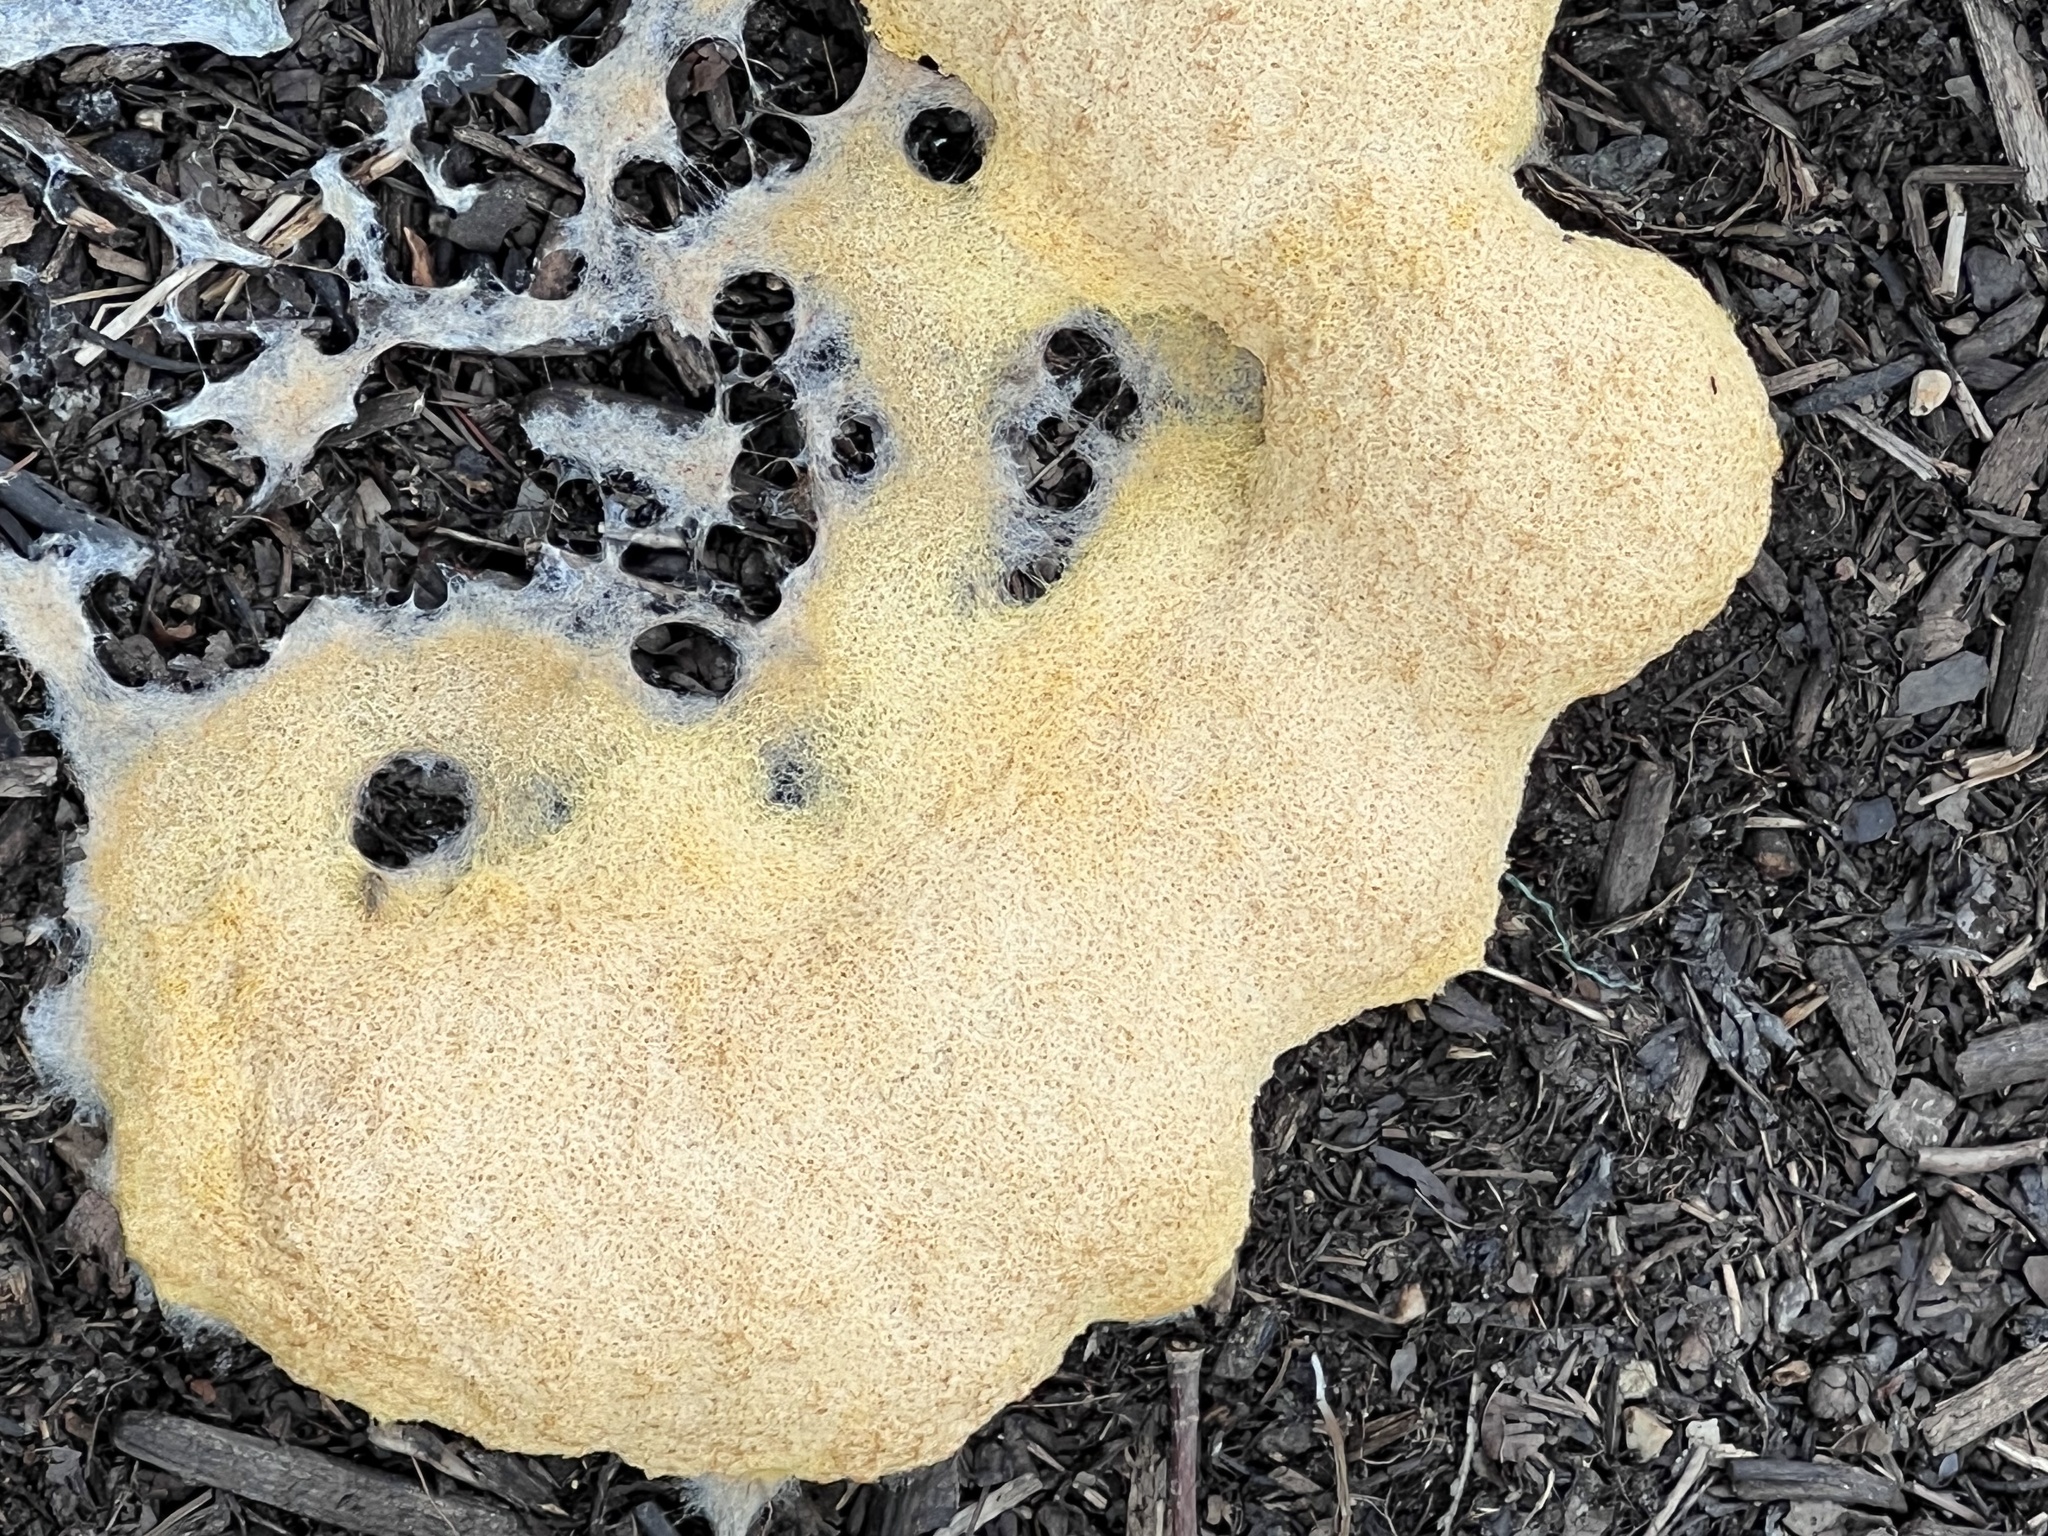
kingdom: Protozoa
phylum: Mycetozoa
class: Myxomycetes
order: Physarales
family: Physaraceae
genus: Fuligo
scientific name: Fuligo septica
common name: Dog vomit slime mold
